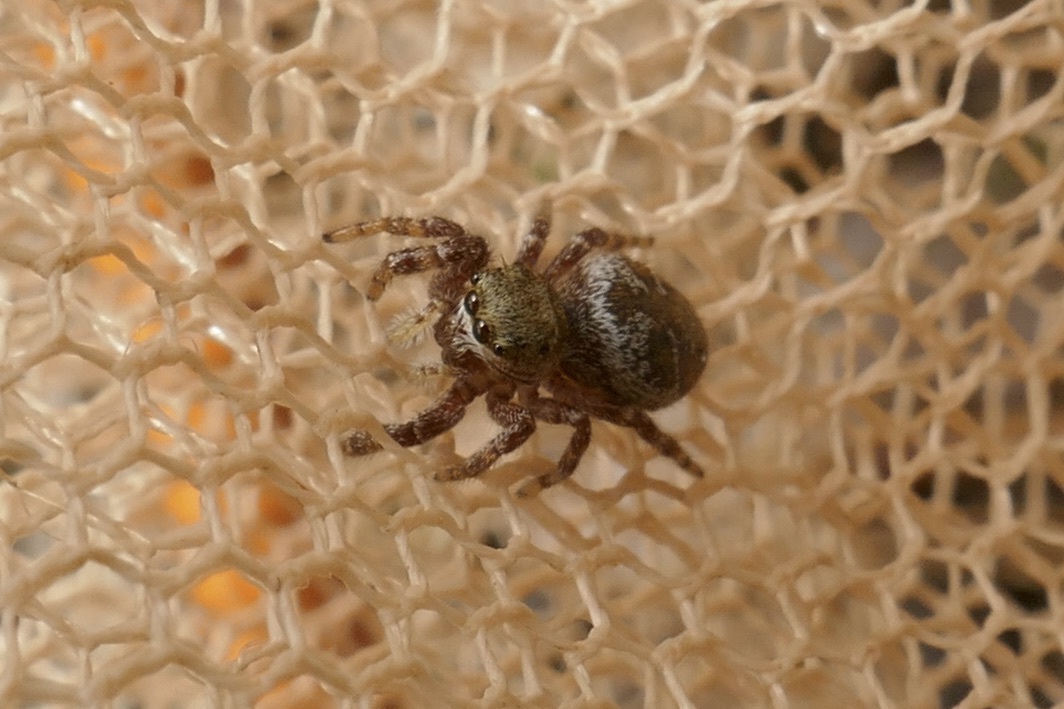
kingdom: Animalia
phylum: Arthropoda
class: Arachnida
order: Araneae
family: Salticidae
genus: Dendryphantes
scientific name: Dendryphantes rudis
